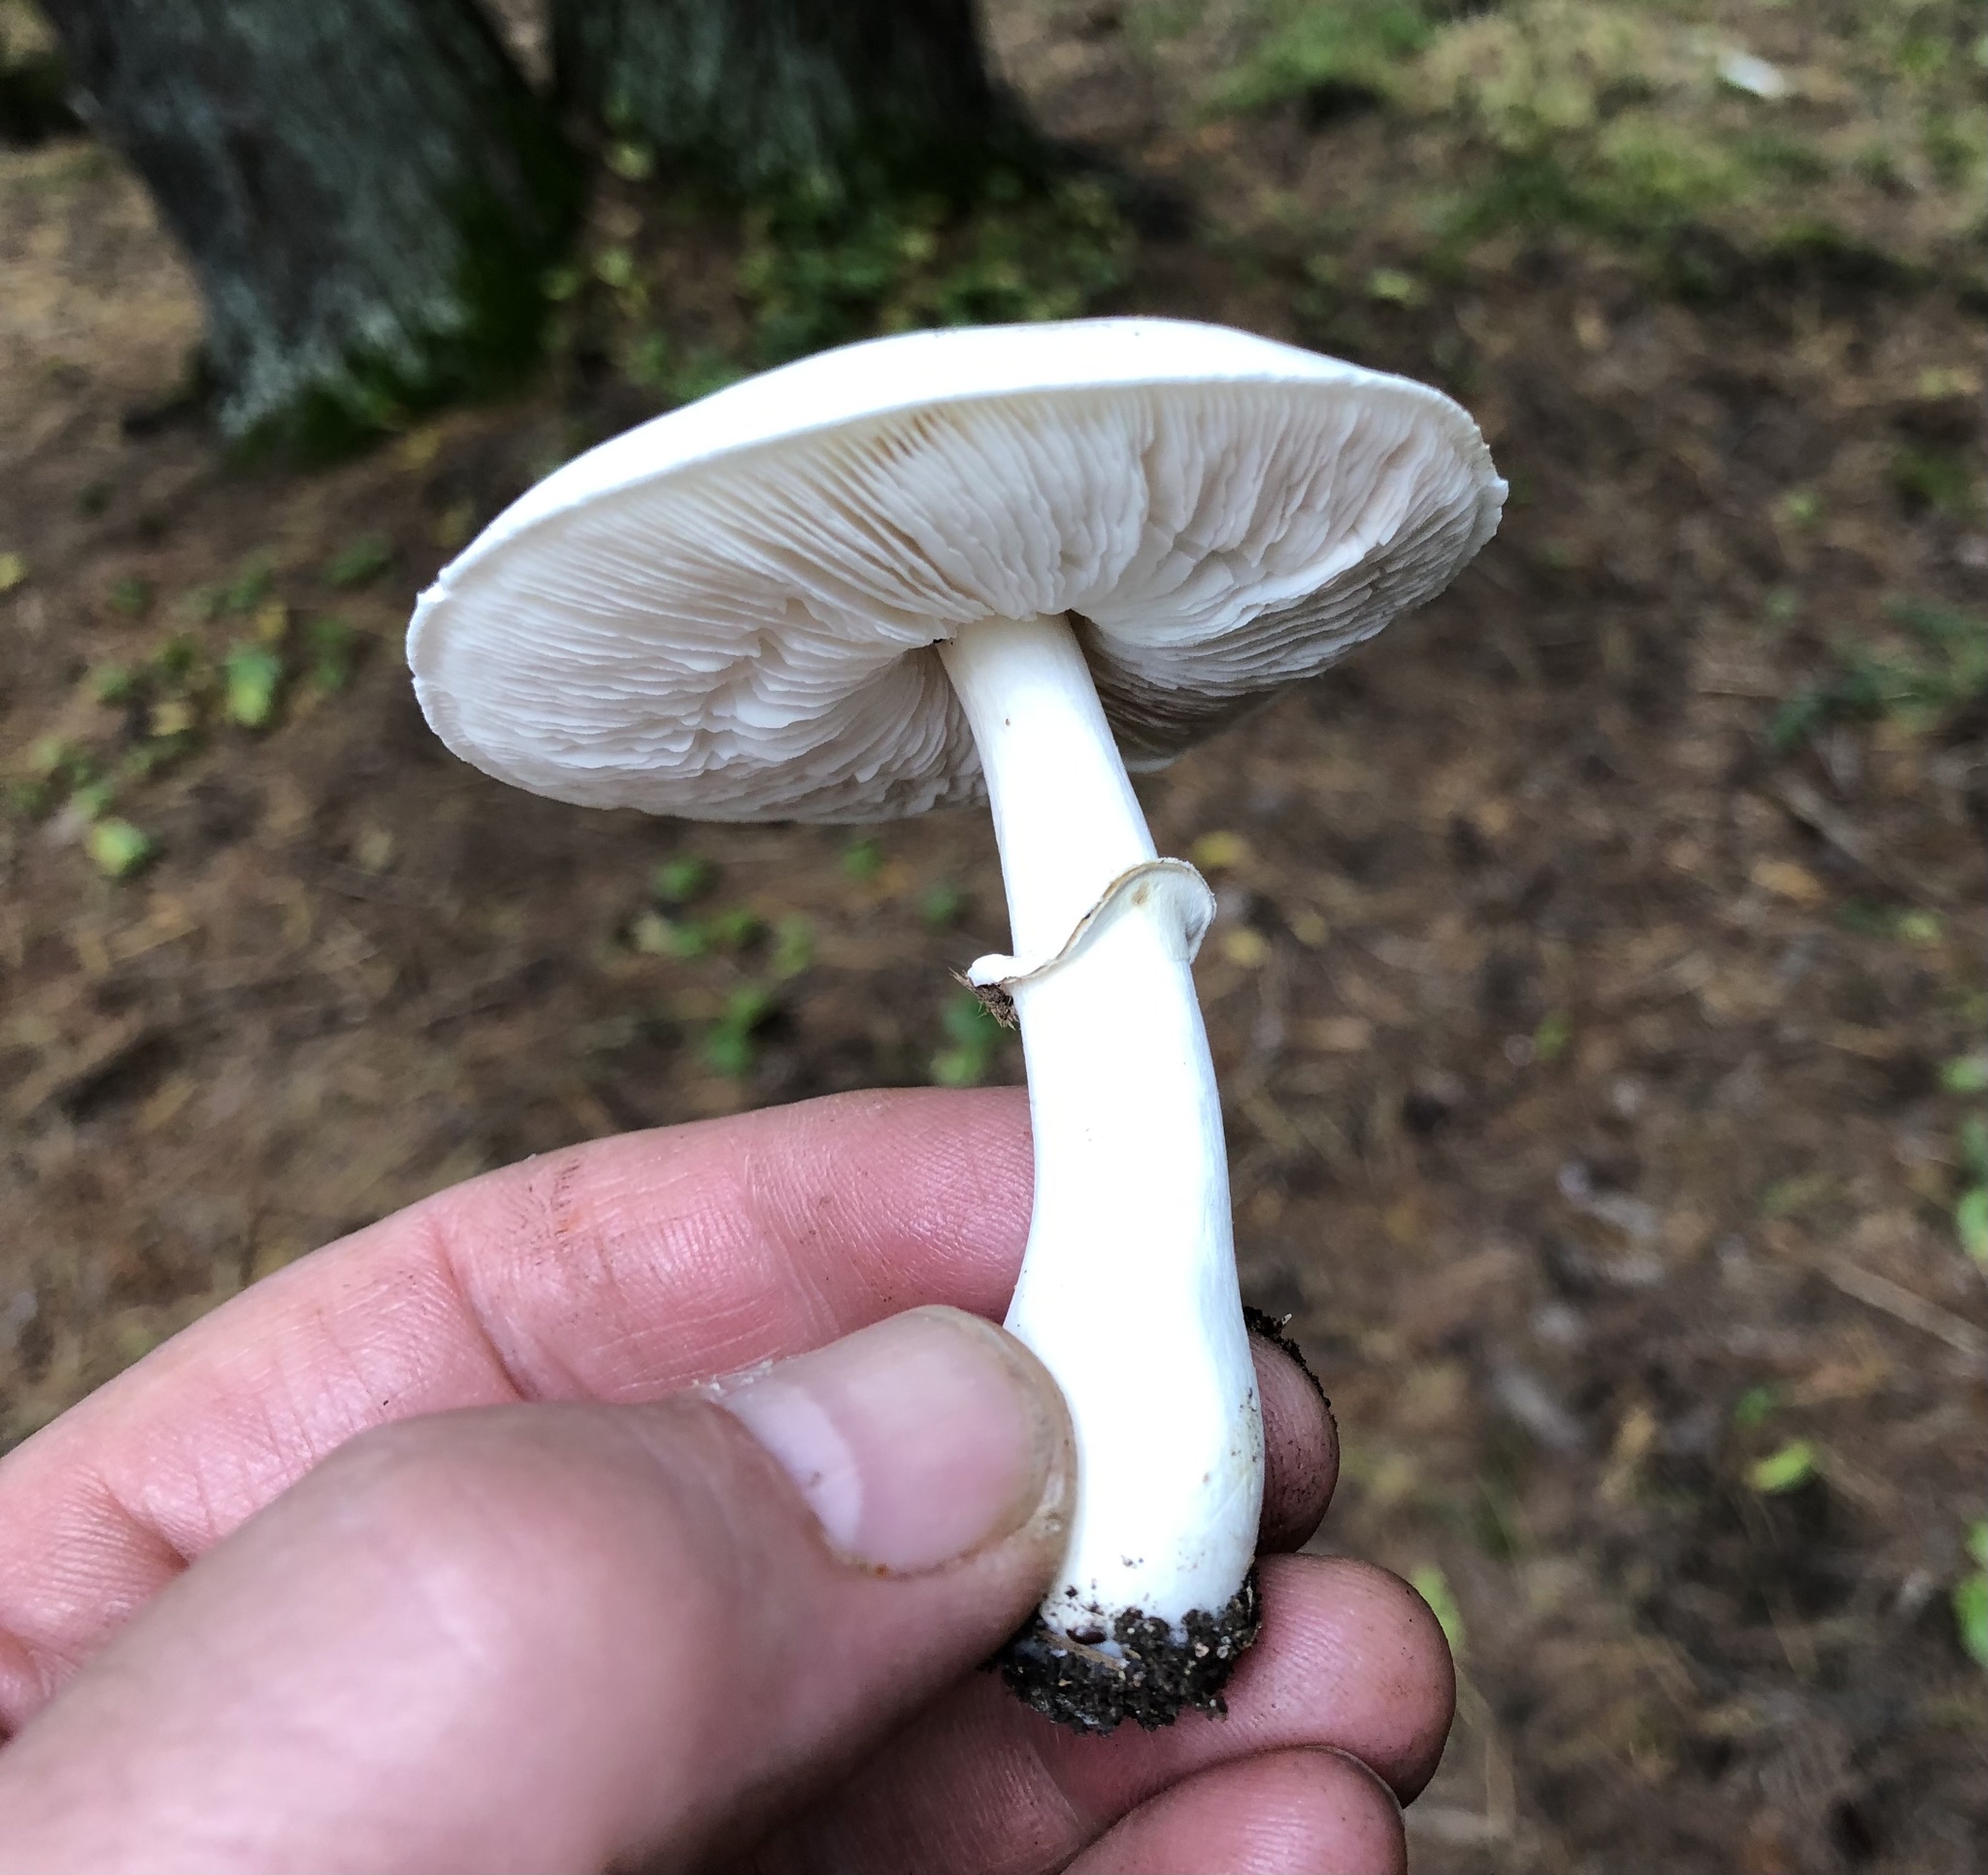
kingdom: Fungi
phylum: Basidiomycota
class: Agaricomycetes
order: Agaricales
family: Agaricaceae
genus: Leucoagaricus
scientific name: Leucoagaricus leucothites
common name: White dapperling
